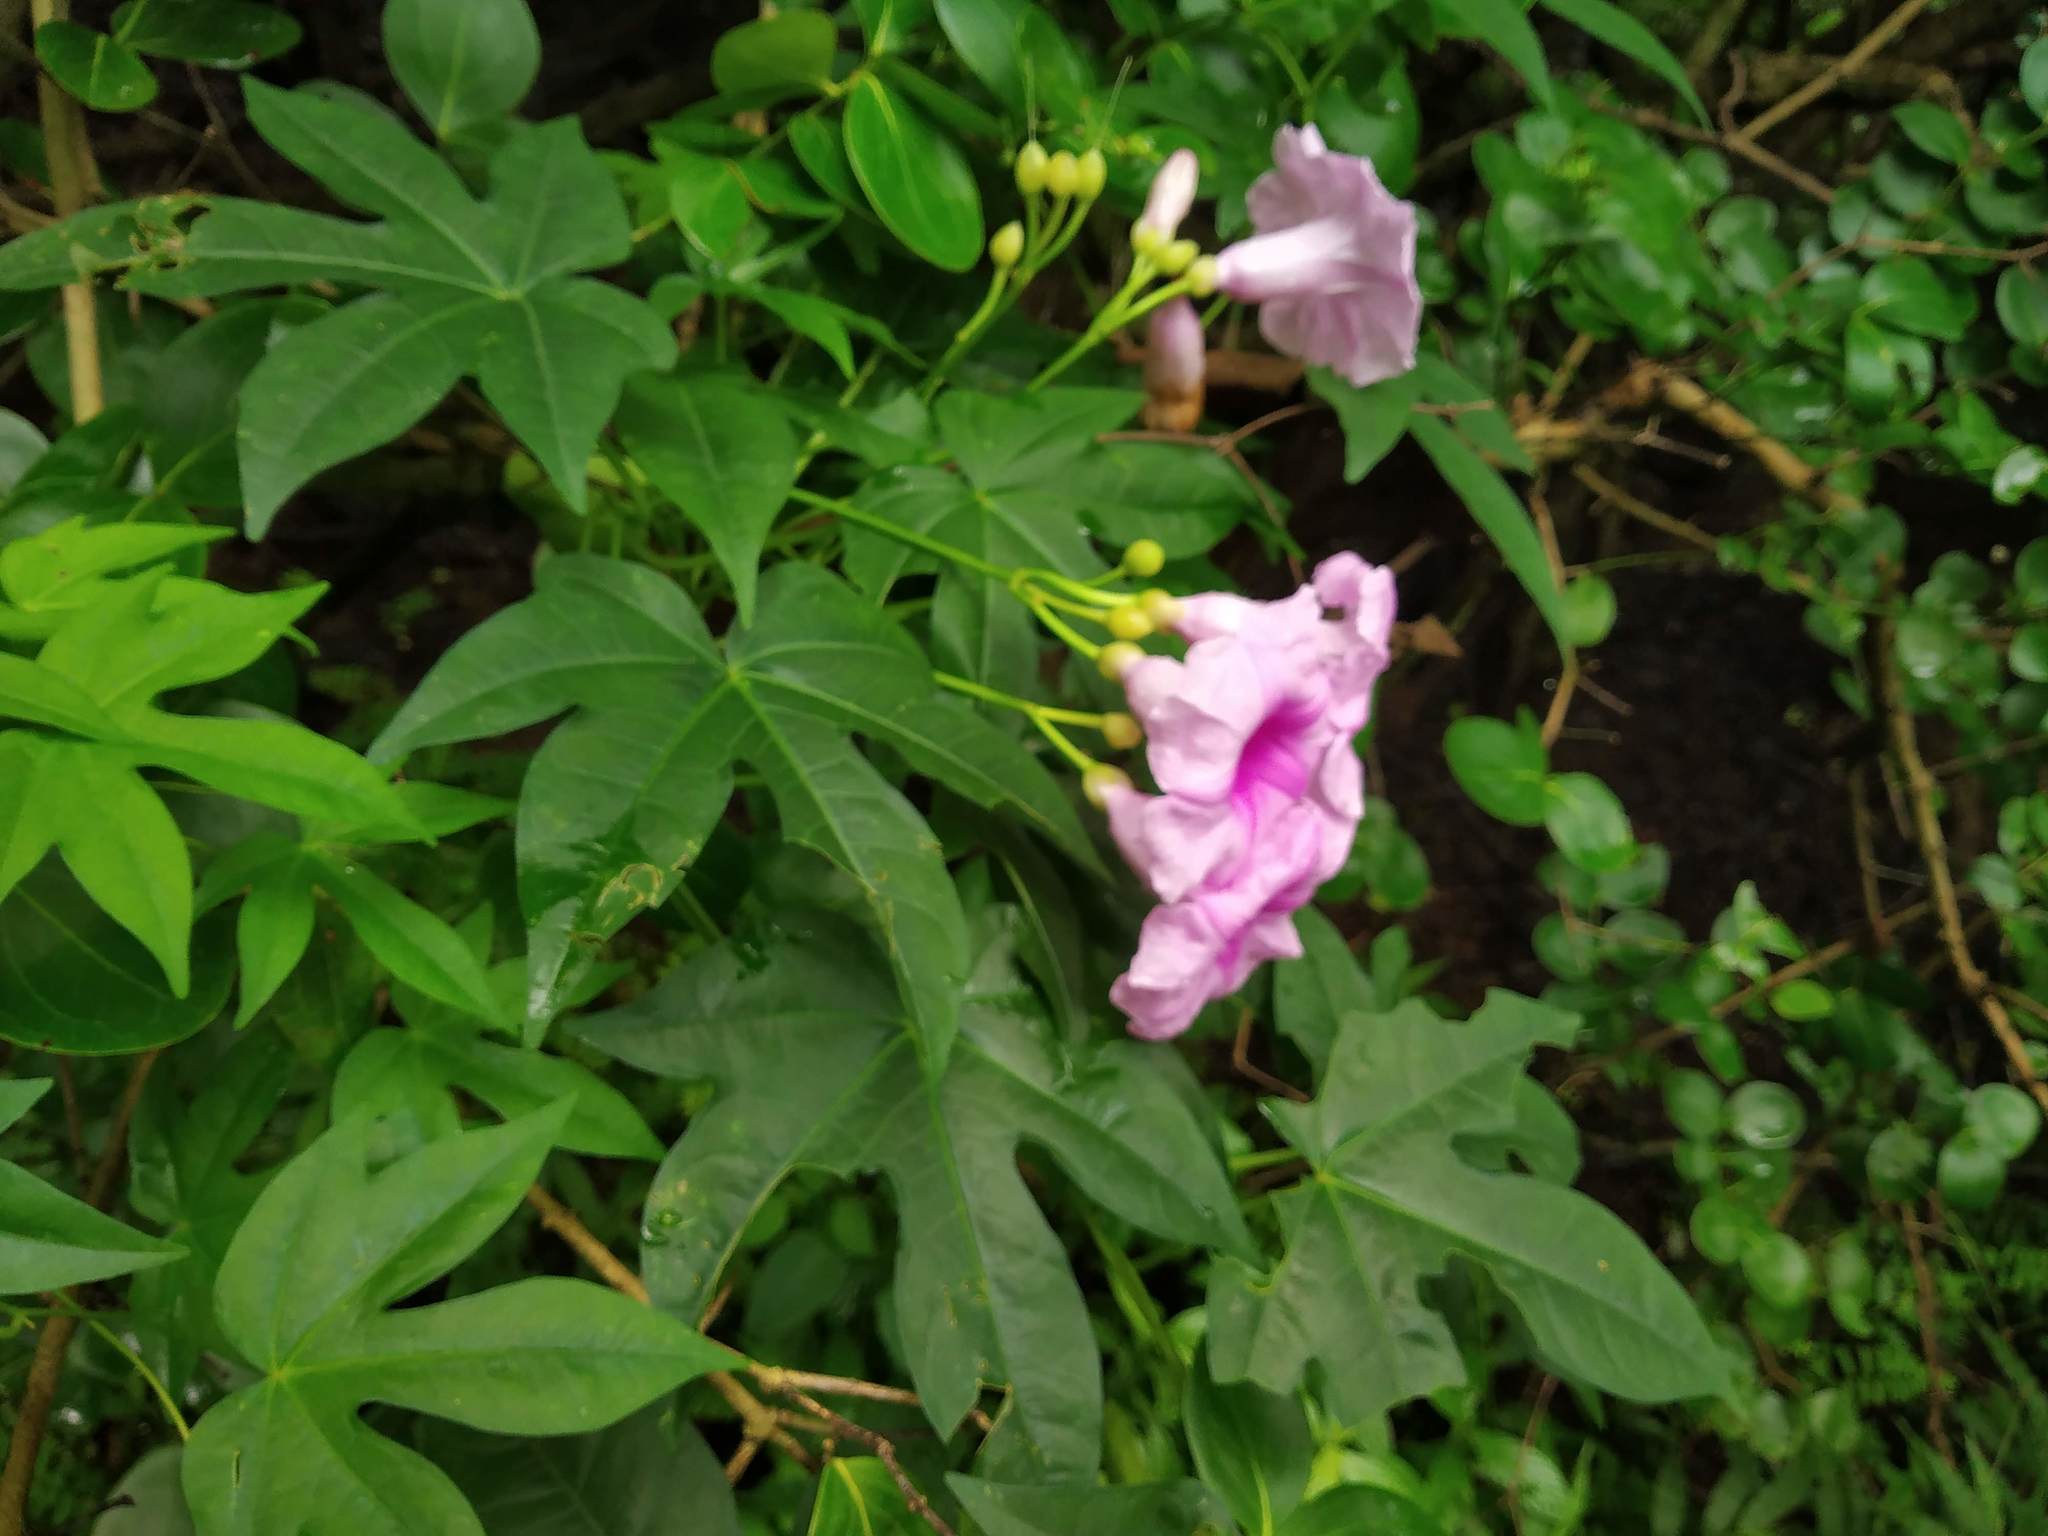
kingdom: Plantae
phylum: Tracheophyta
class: Magnoliopsida
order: Solanales
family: Convolvulaceae
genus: Ipomoea
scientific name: Ipomoea mauritiana
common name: Mauritanian convolvulus
